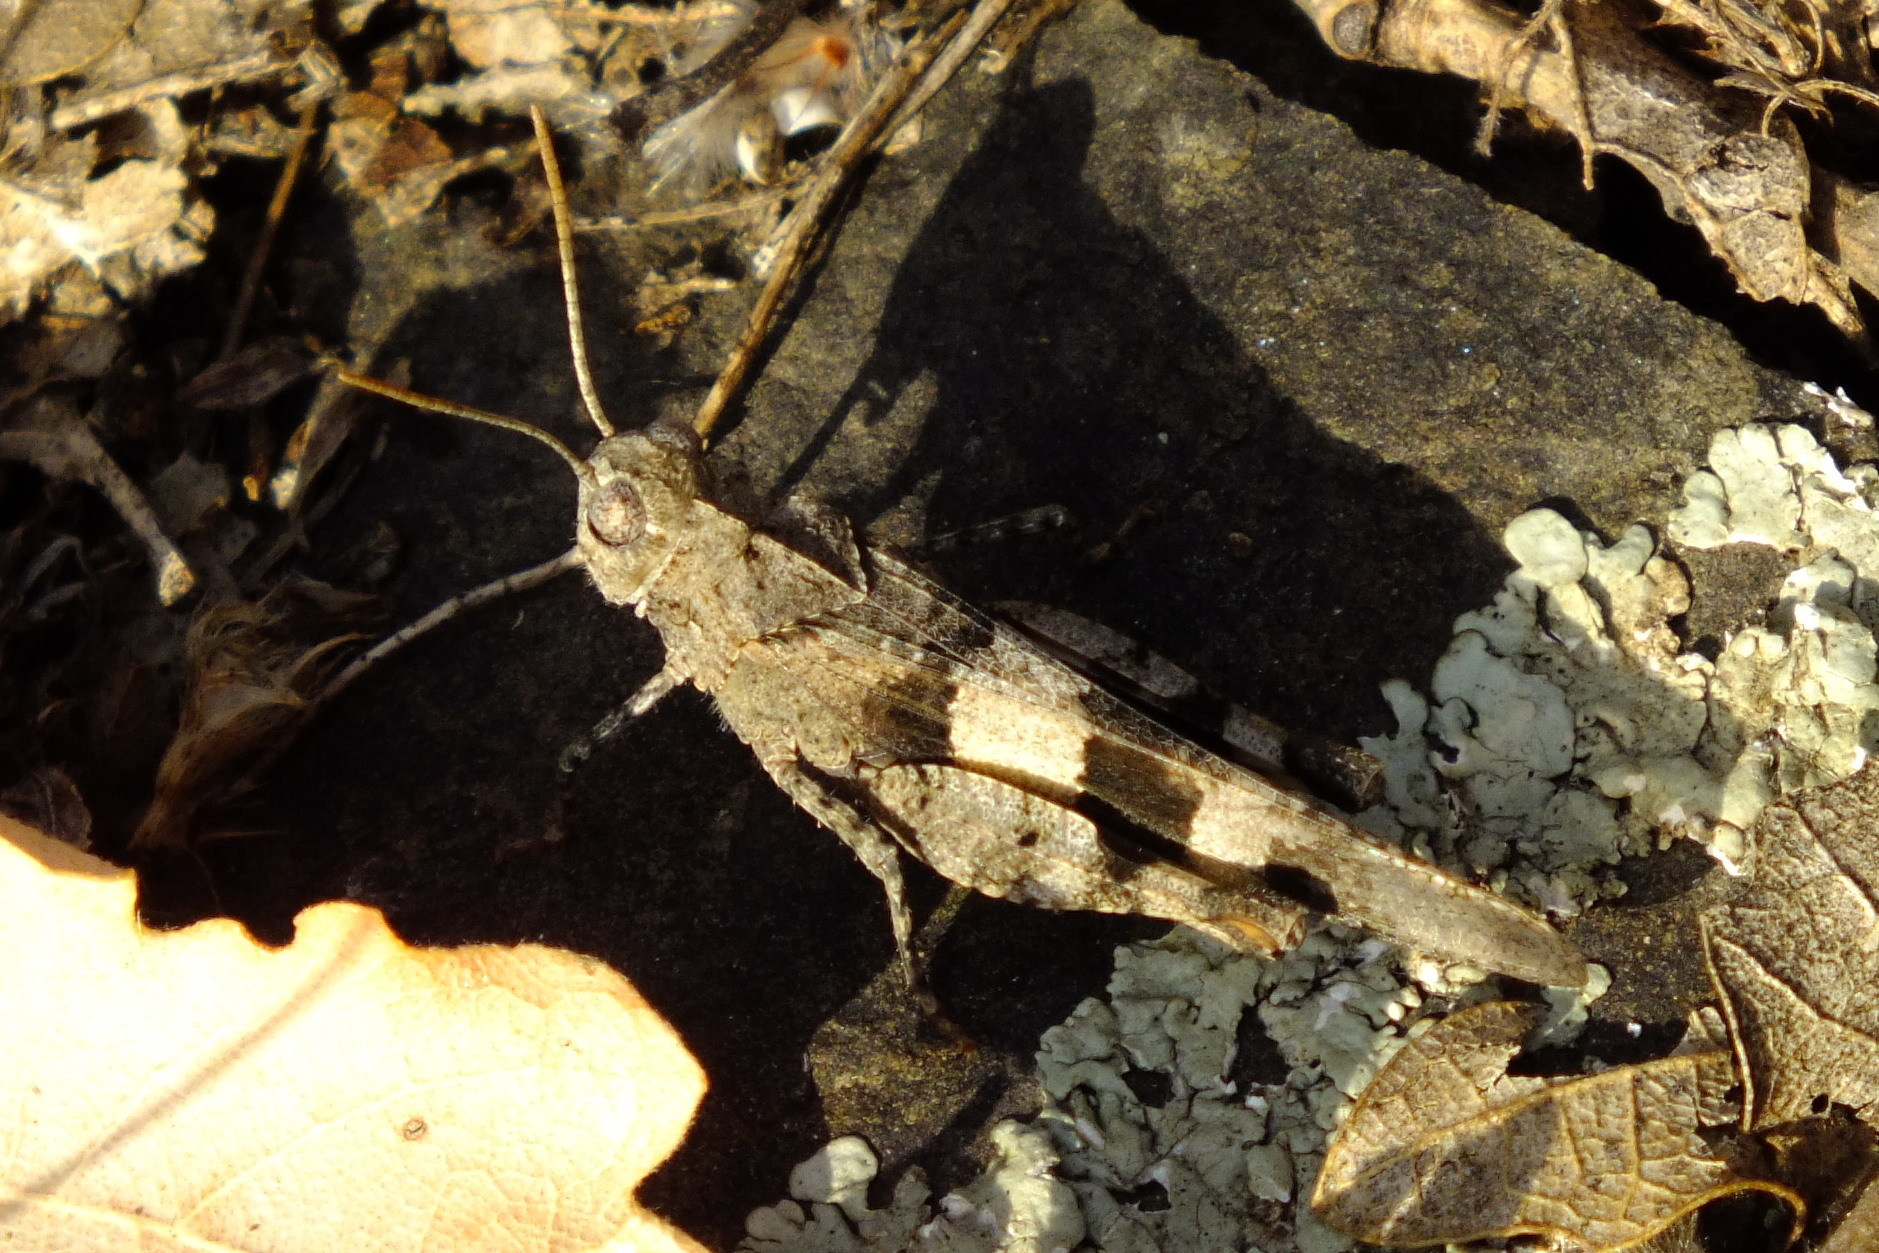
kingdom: Animalia
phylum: Arthropoda
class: Insecta
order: Orthoptera
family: Acrididae
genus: Oedipoda
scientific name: Oedipoda caerulescens
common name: Blue-winged grasshopper
